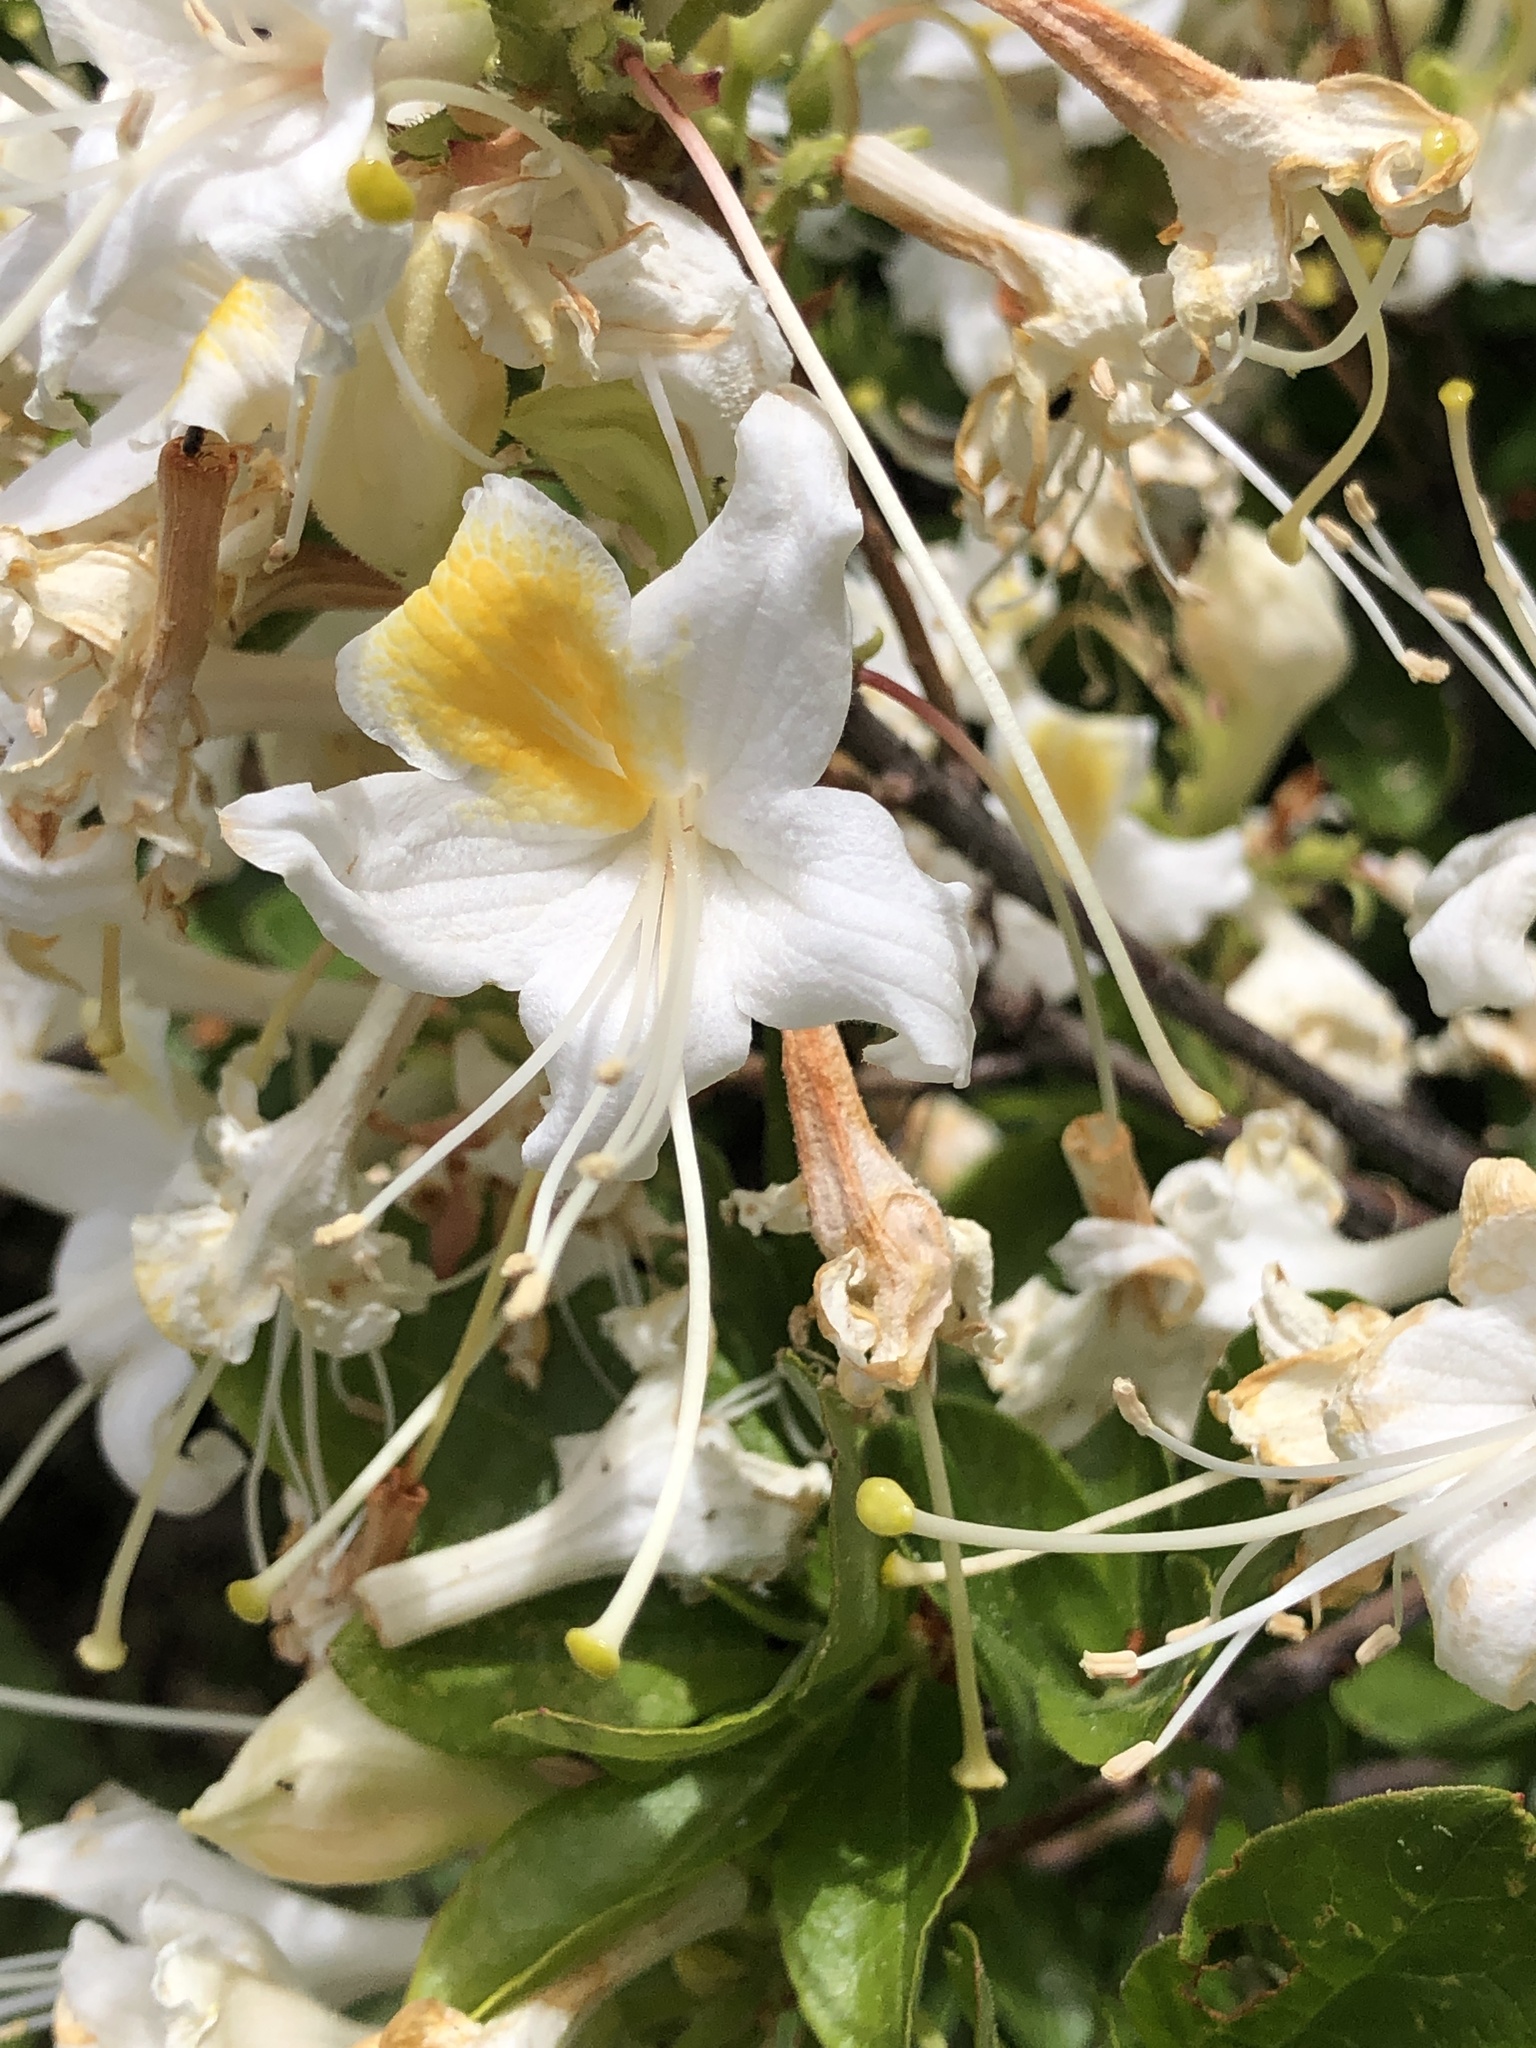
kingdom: Plantae
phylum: Tracheophyta
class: Magnoliopsida
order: Ericales
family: Ericaceae
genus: Rhododendron
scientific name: Rhododendron occidentale
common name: Western azalea
